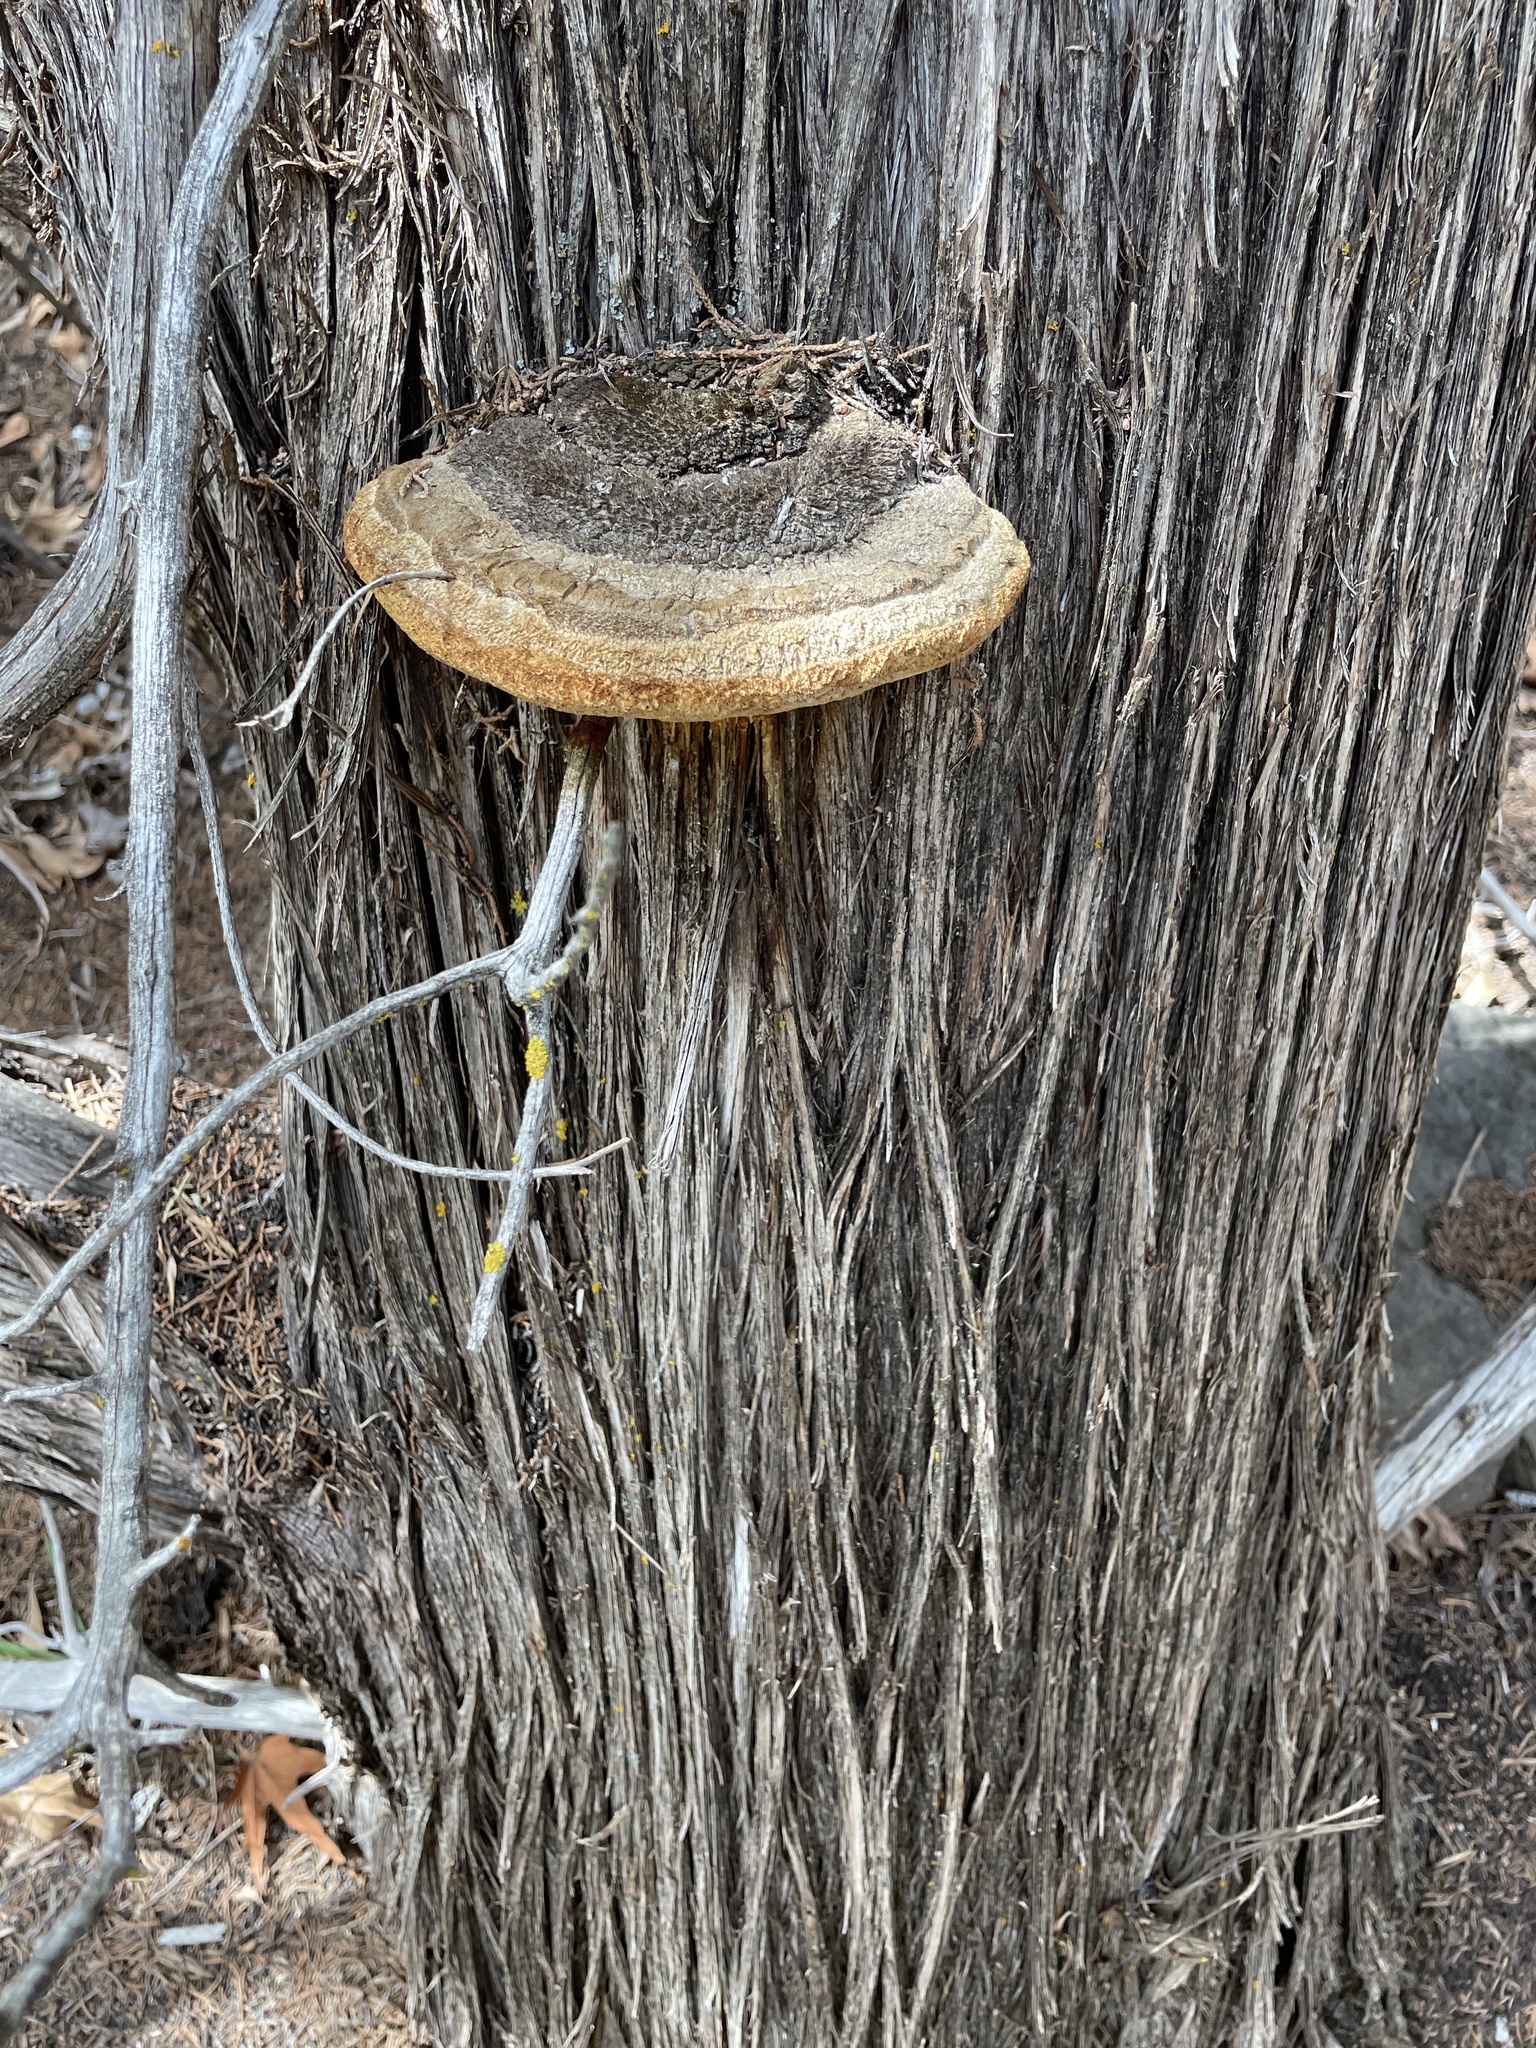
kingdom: Fungi
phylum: Basidiomycota
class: Agaricomycetes
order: Polyporales
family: Polyporaceae
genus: Pyrofomes
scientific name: Pyrofomes juniperinus
